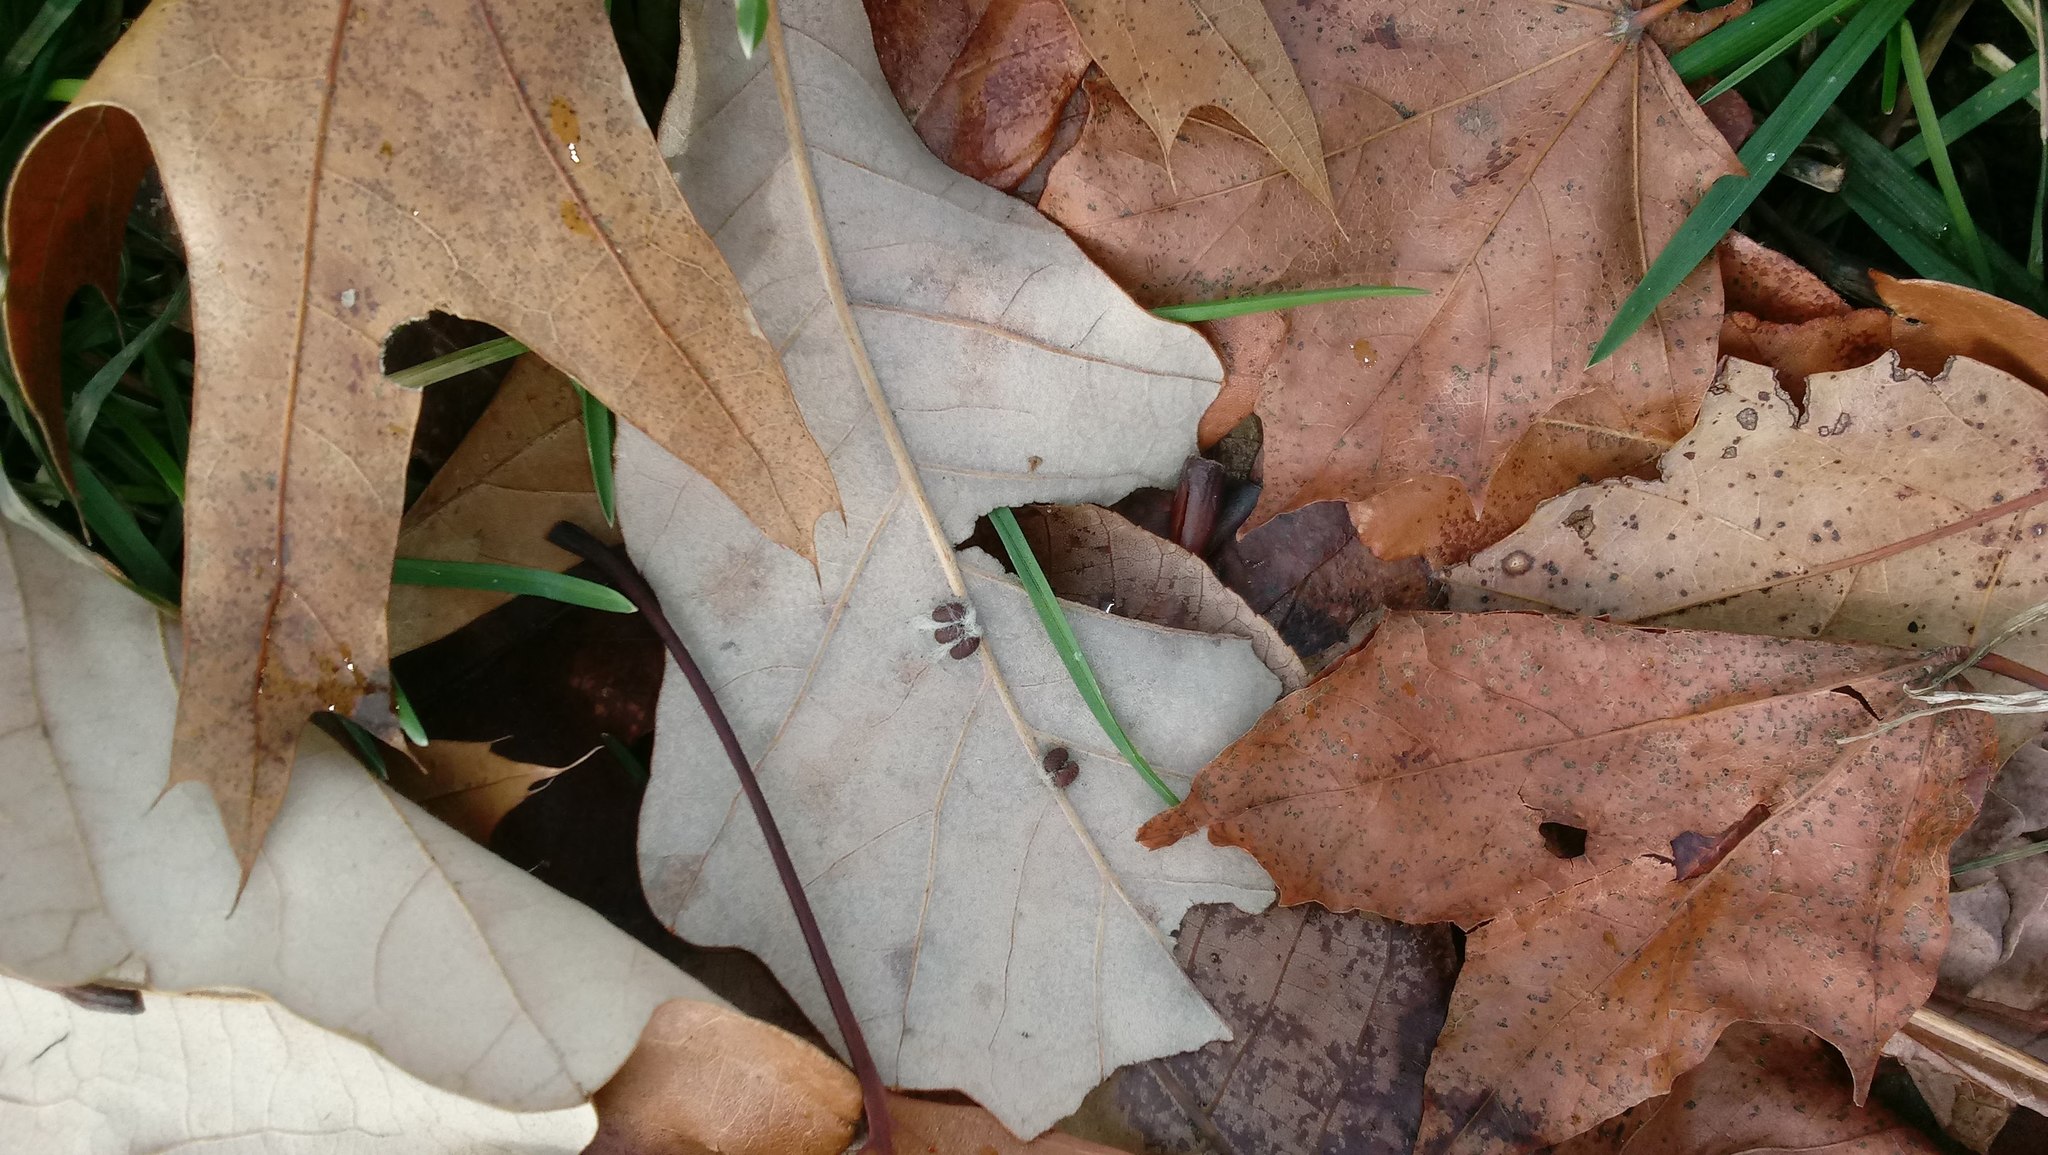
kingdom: Animalia
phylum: Arthropoda
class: Insecta
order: Hymenoptera
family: Cynipidae
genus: Andricus
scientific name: Andricus Druon ignotum
